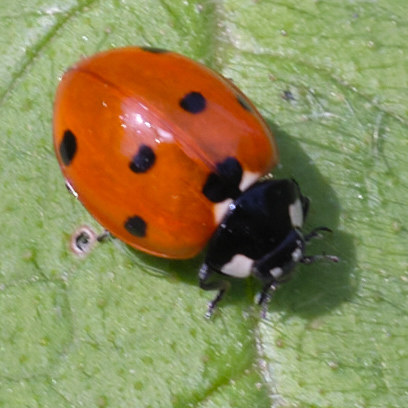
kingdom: Animalia
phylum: Arthropoda
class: Insecta
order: Coleoptera
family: Coccinellidae
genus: Coccinella
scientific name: Coccinella septempunctata
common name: Sevenspotted lady beetle
